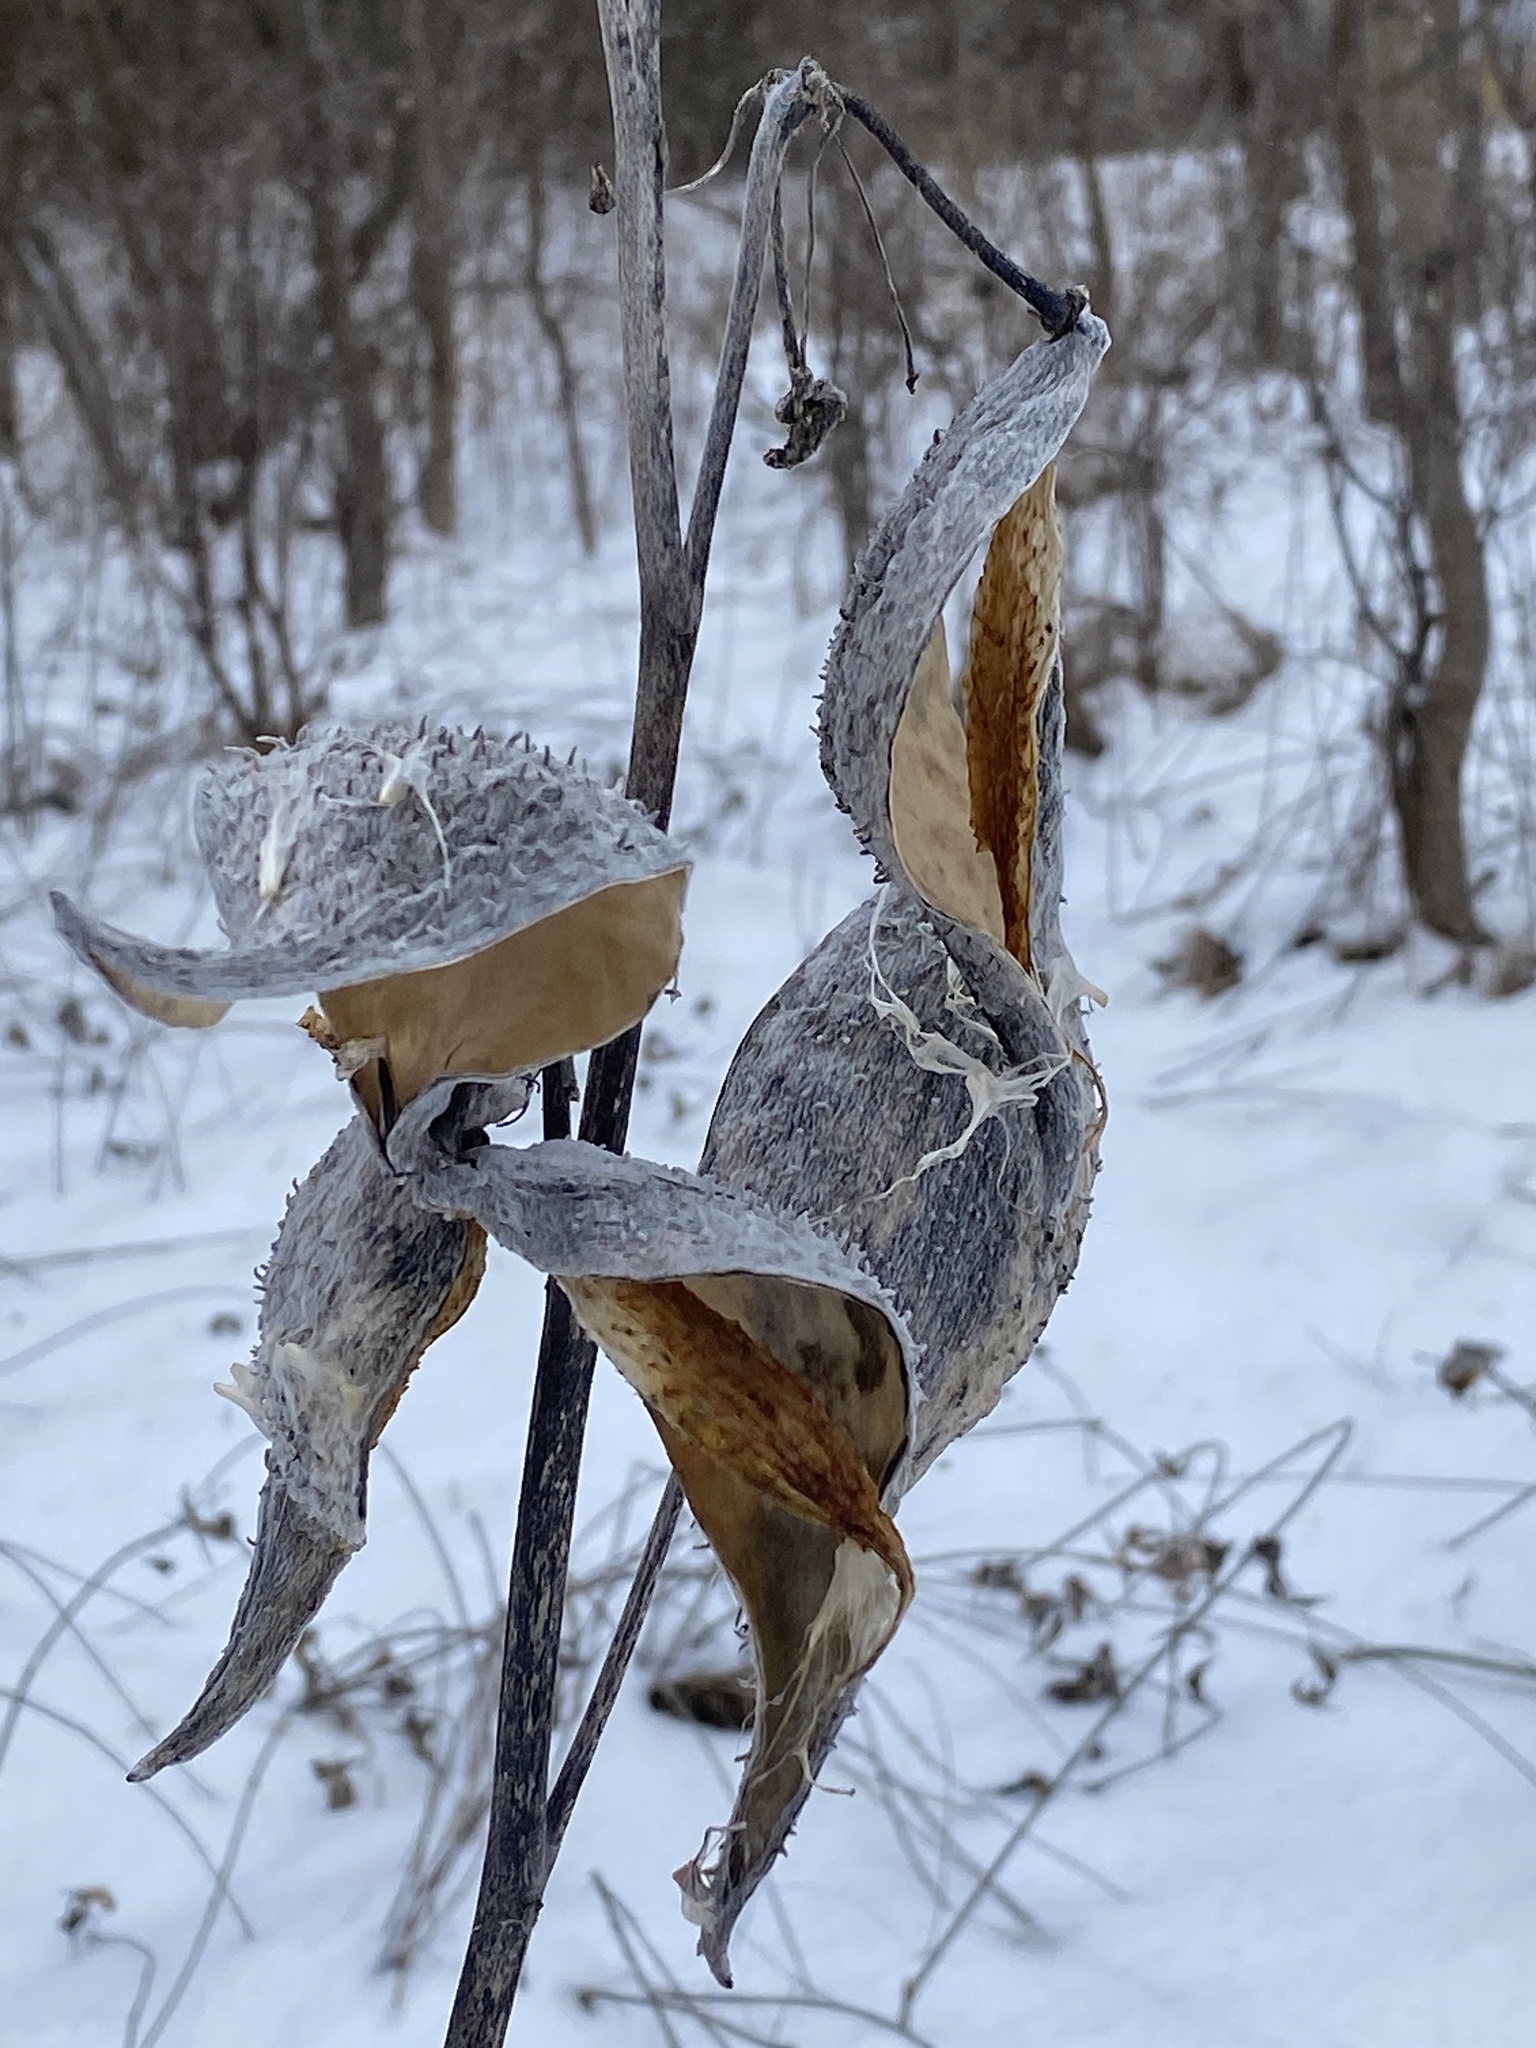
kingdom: Plantae
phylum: Tracheophyta
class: Magnoliopsida
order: Gentianales
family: Apocynaceae
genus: Asclepias
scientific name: Asclepias syriaca
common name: Common milkweed
